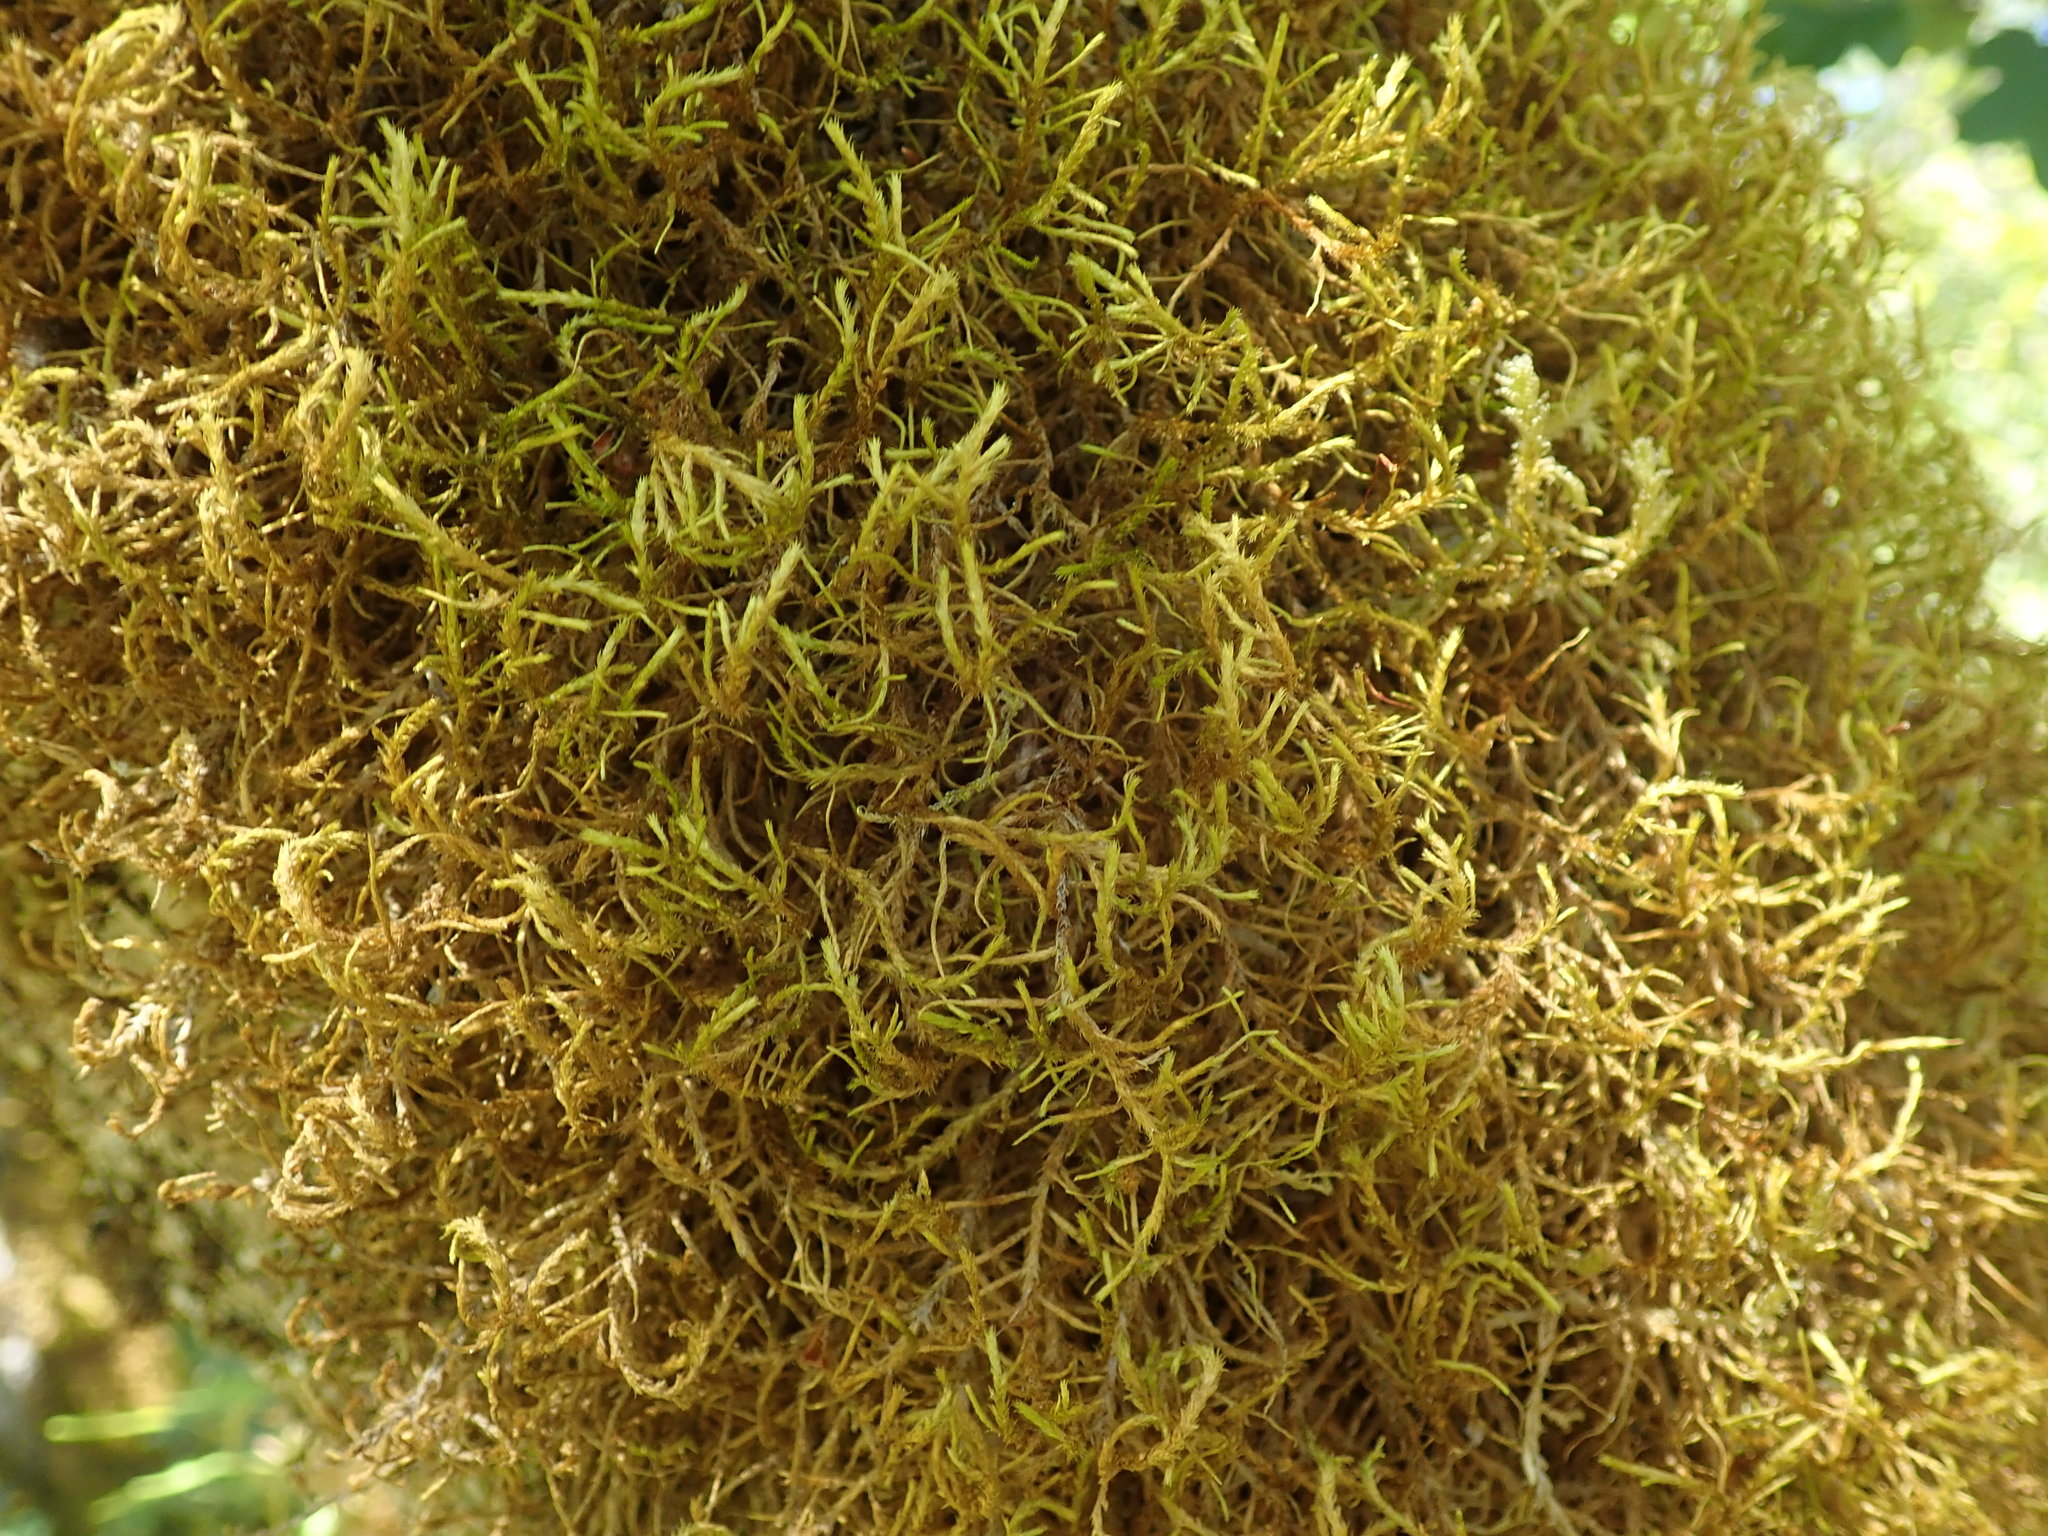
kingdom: Plantae
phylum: Bryophyta
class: Bryopsida
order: Hypnales
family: Antitrichiaceae
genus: Antitrichia
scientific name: Antitrichia californica
